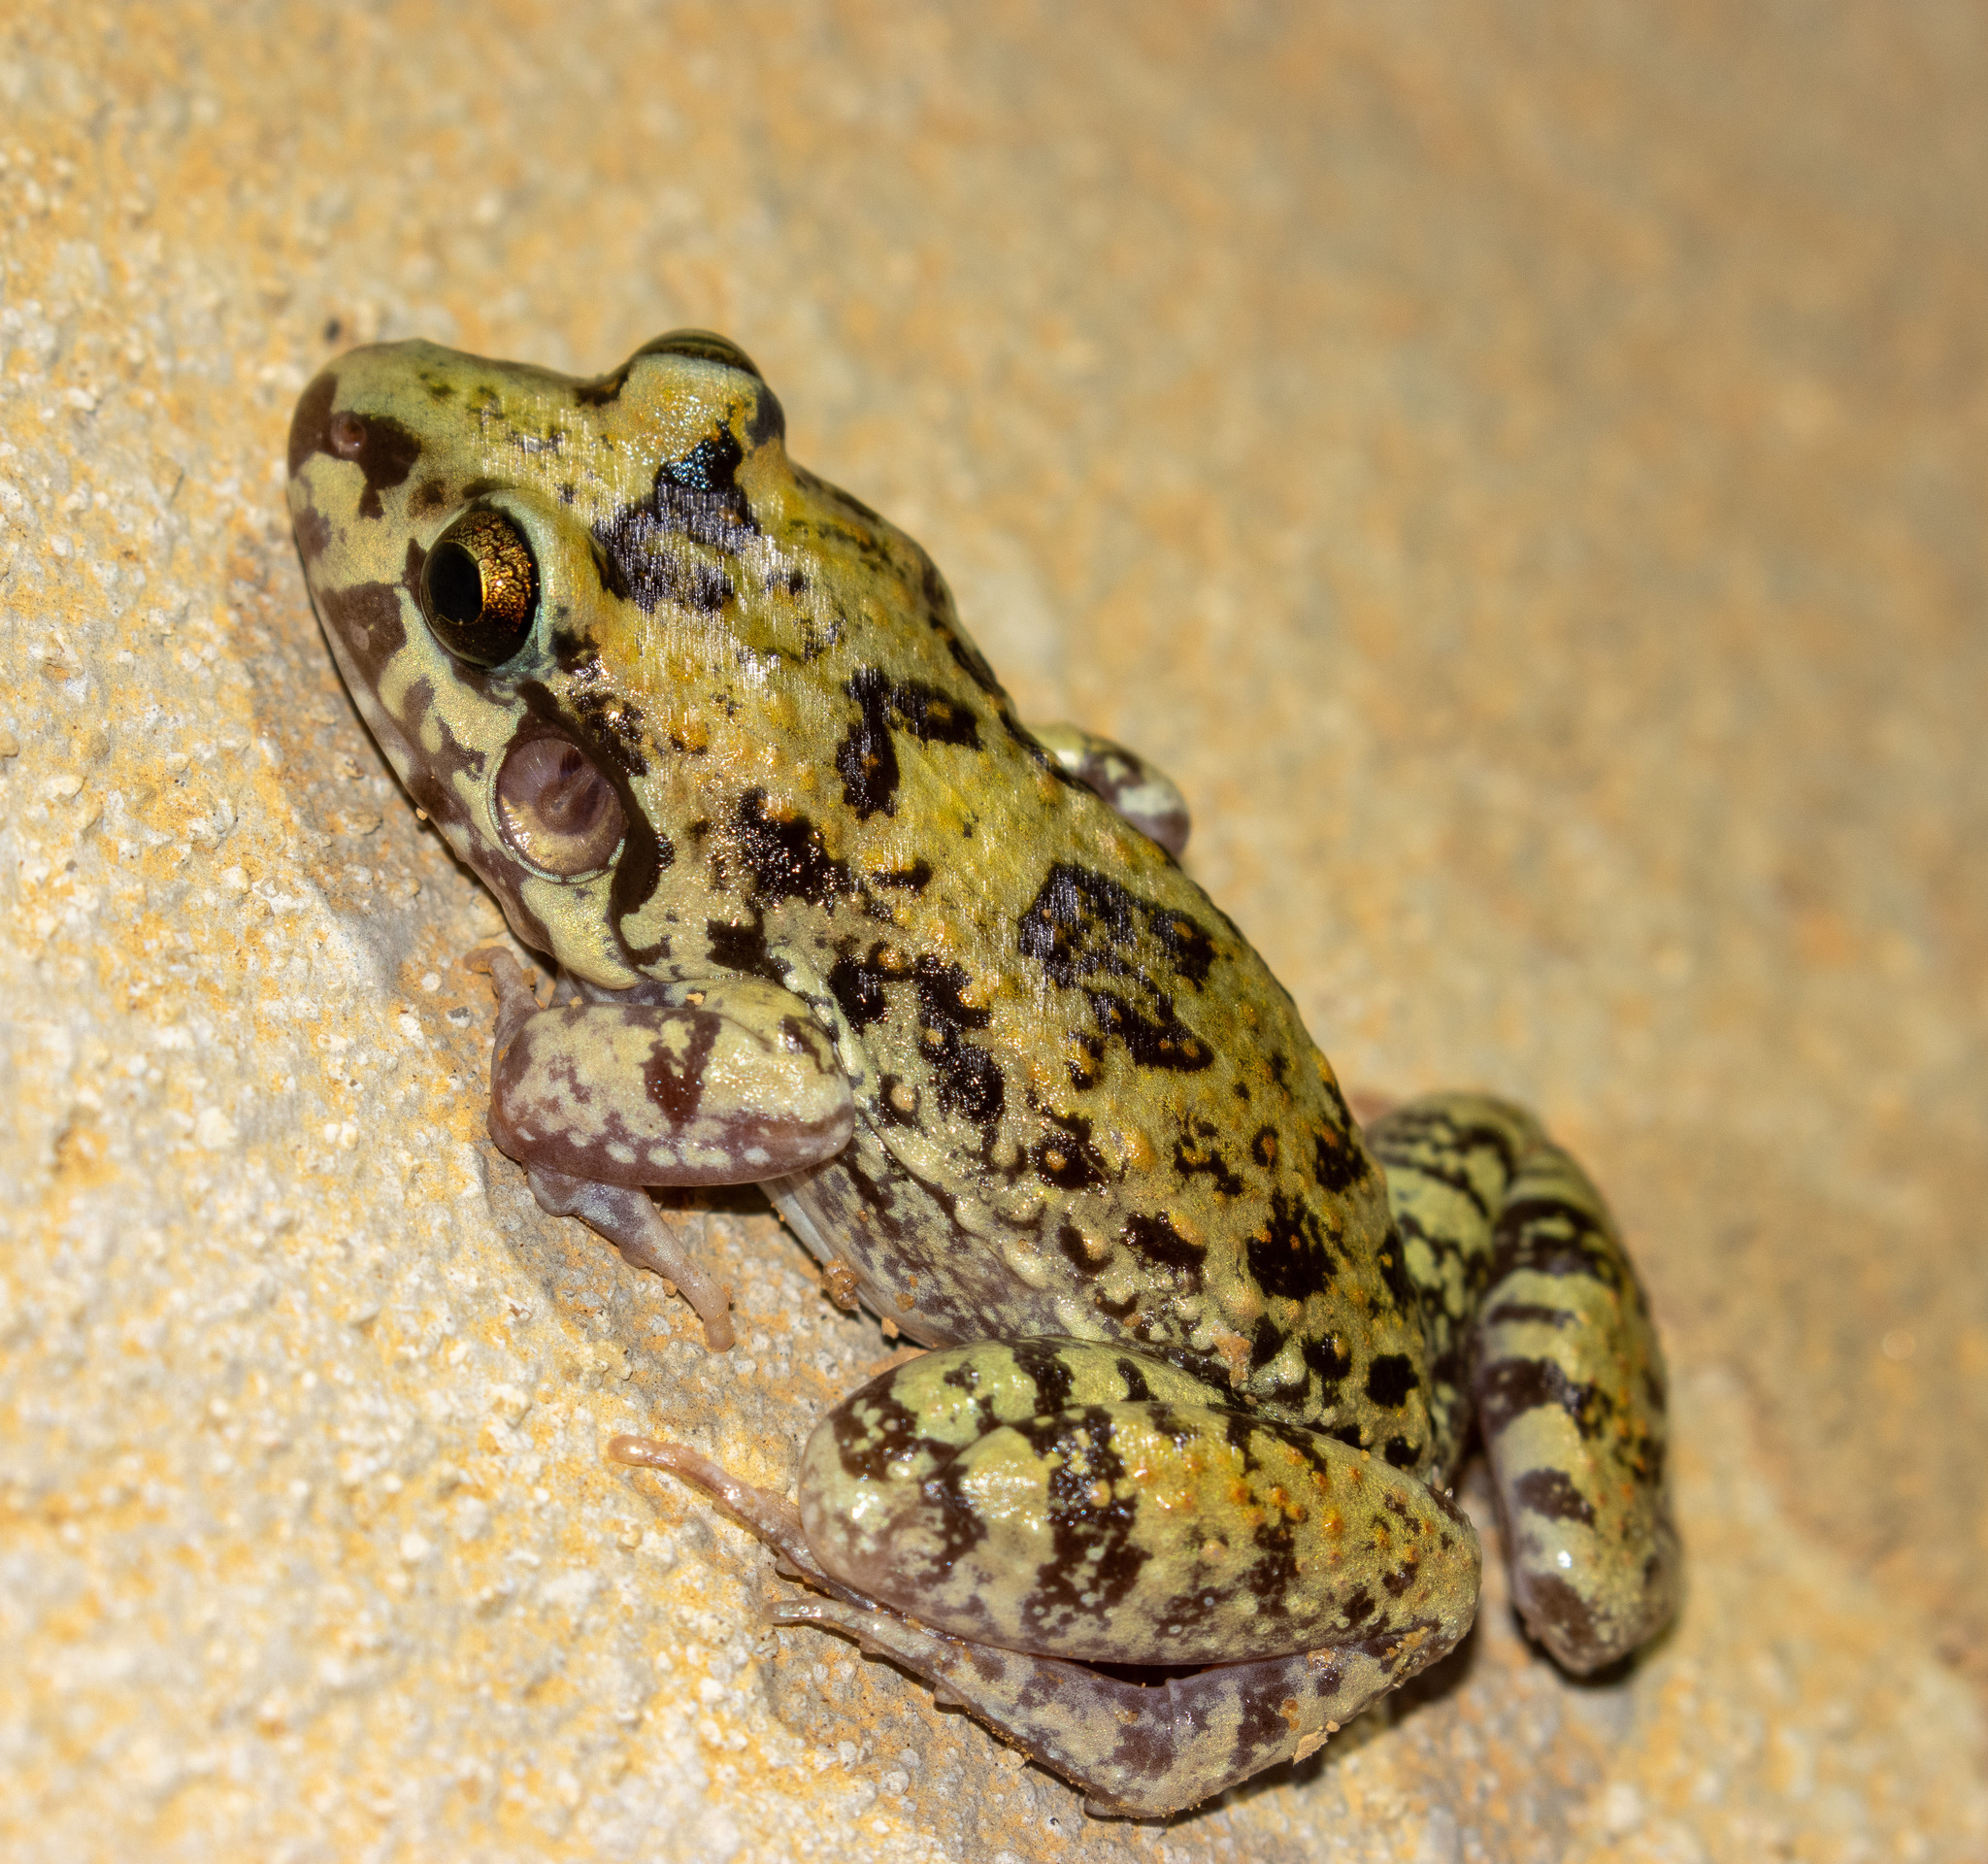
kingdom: Animalia
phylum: Chordata
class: Amphibia
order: Anura
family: Leptodactylidae
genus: Leptodactylus
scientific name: Leptodactylus troglodytes
